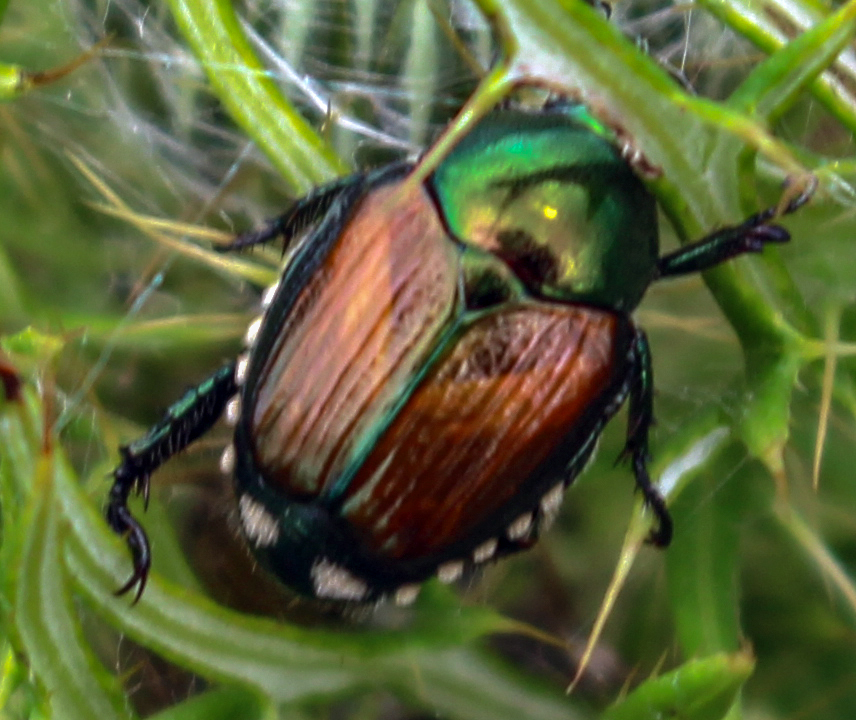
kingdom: Animalia
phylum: Arthropoda
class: Insecta
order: Coleoptera
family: Scarabaeidae
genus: Popillia
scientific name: Popillia japonica
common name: Japanese beetle
